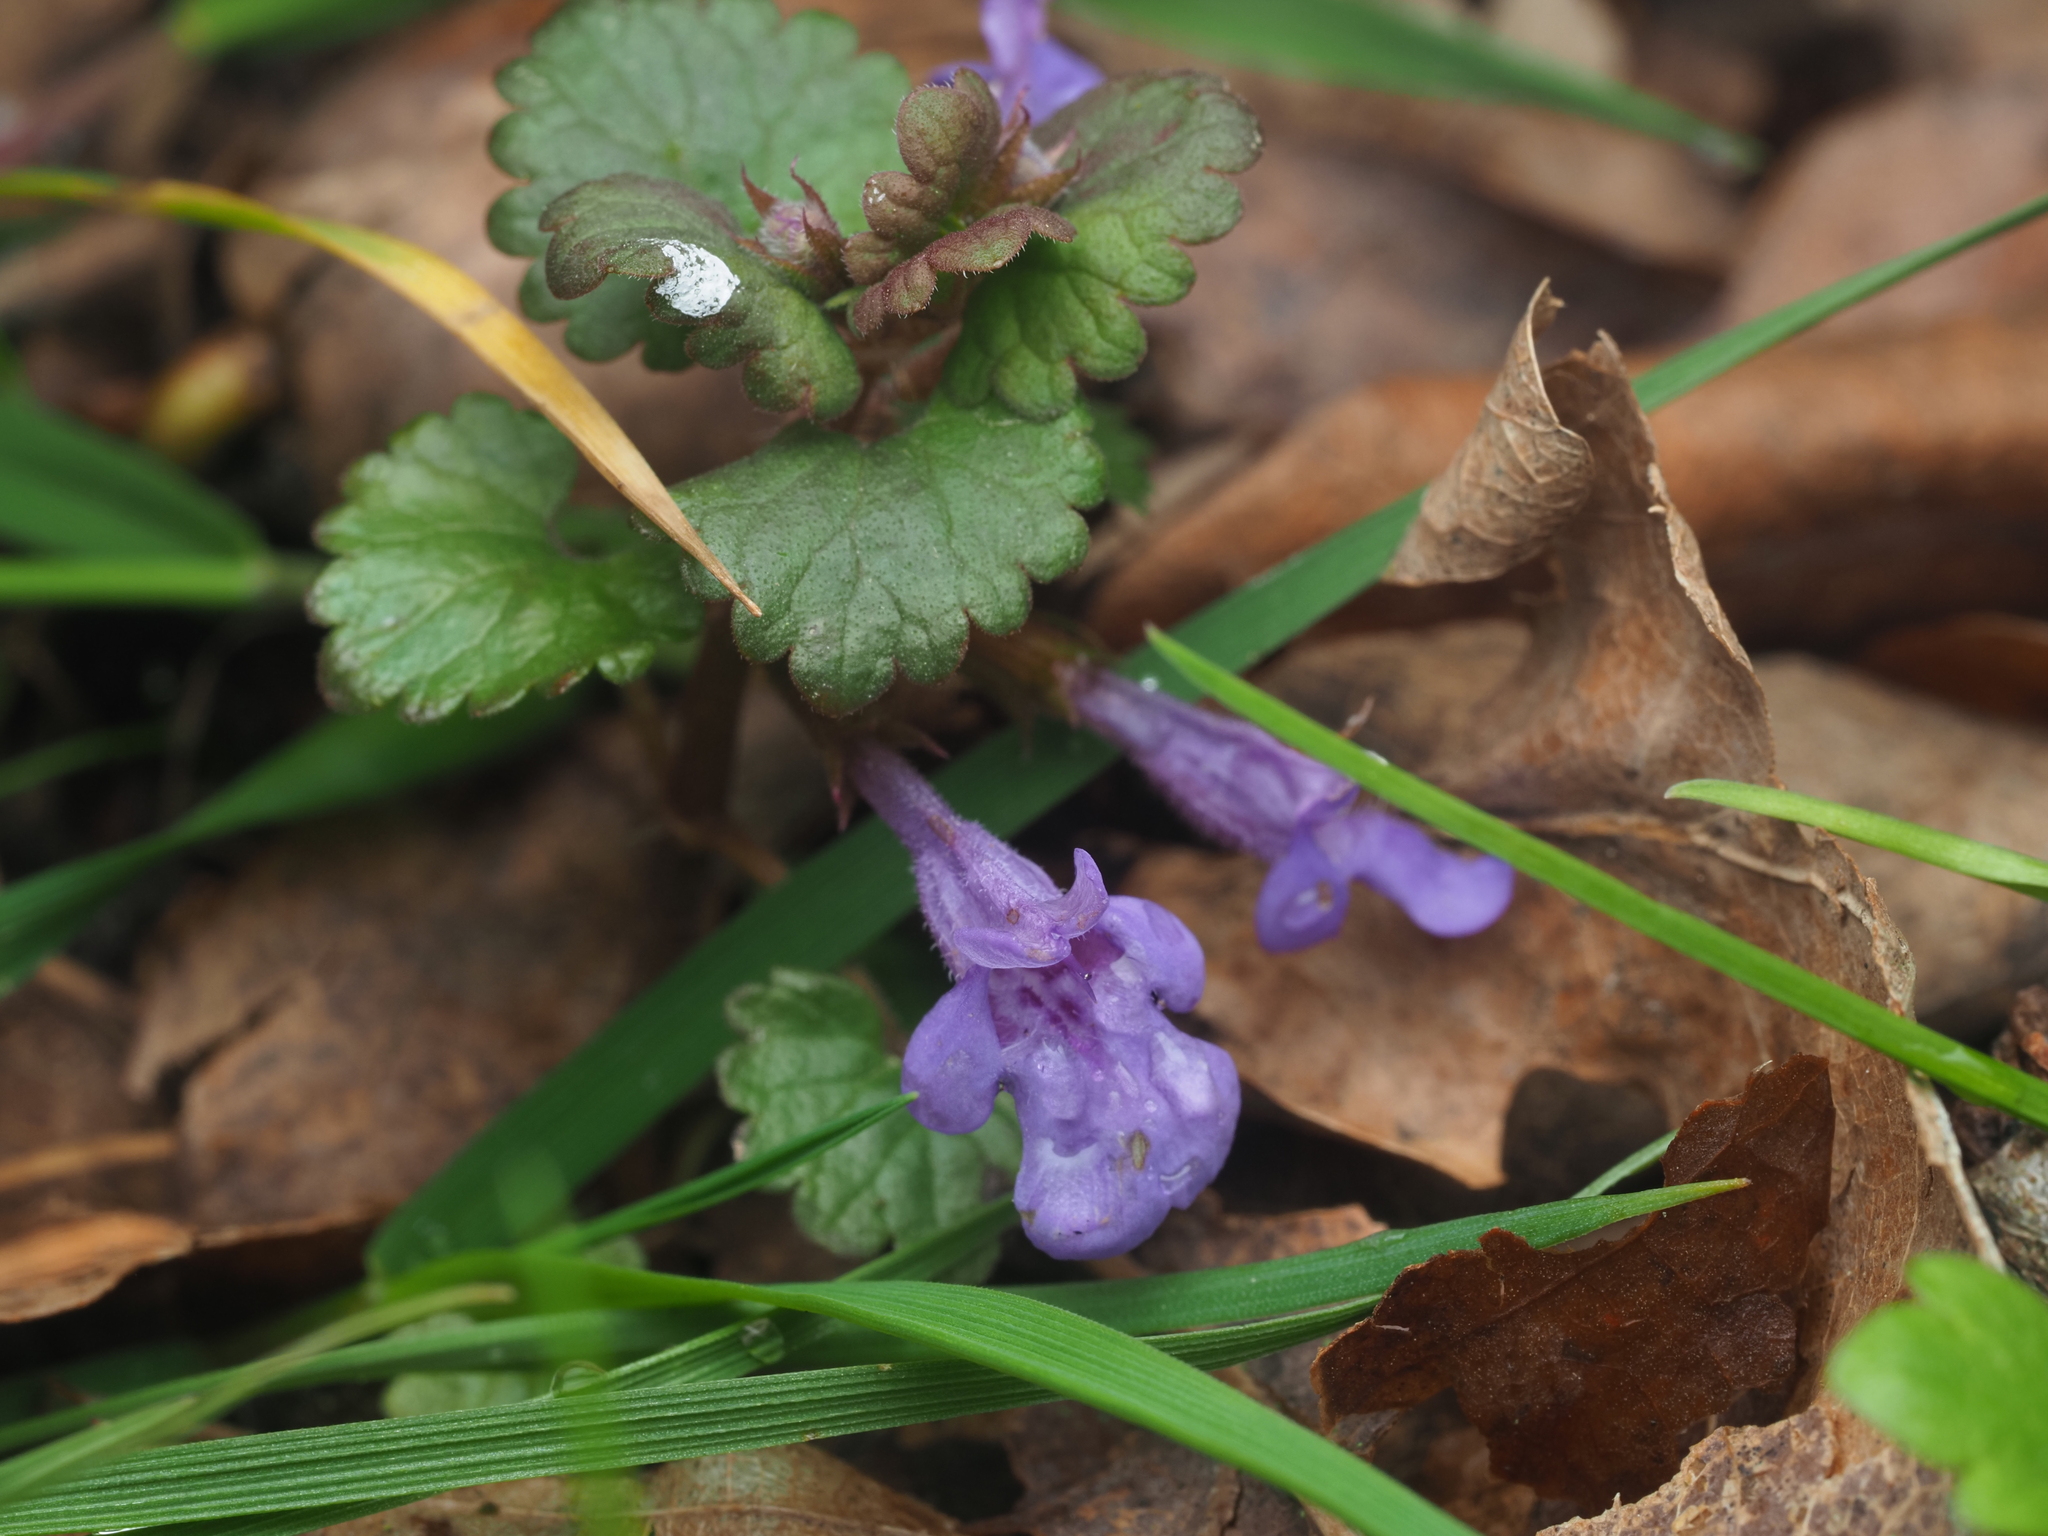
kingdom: Plantae
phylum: Tracheophyta
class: Magnoliopsida
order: Lamiales
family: Lamiaceae
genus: Glechoma
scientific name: Glechoma hederacea
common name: Ground ivy
